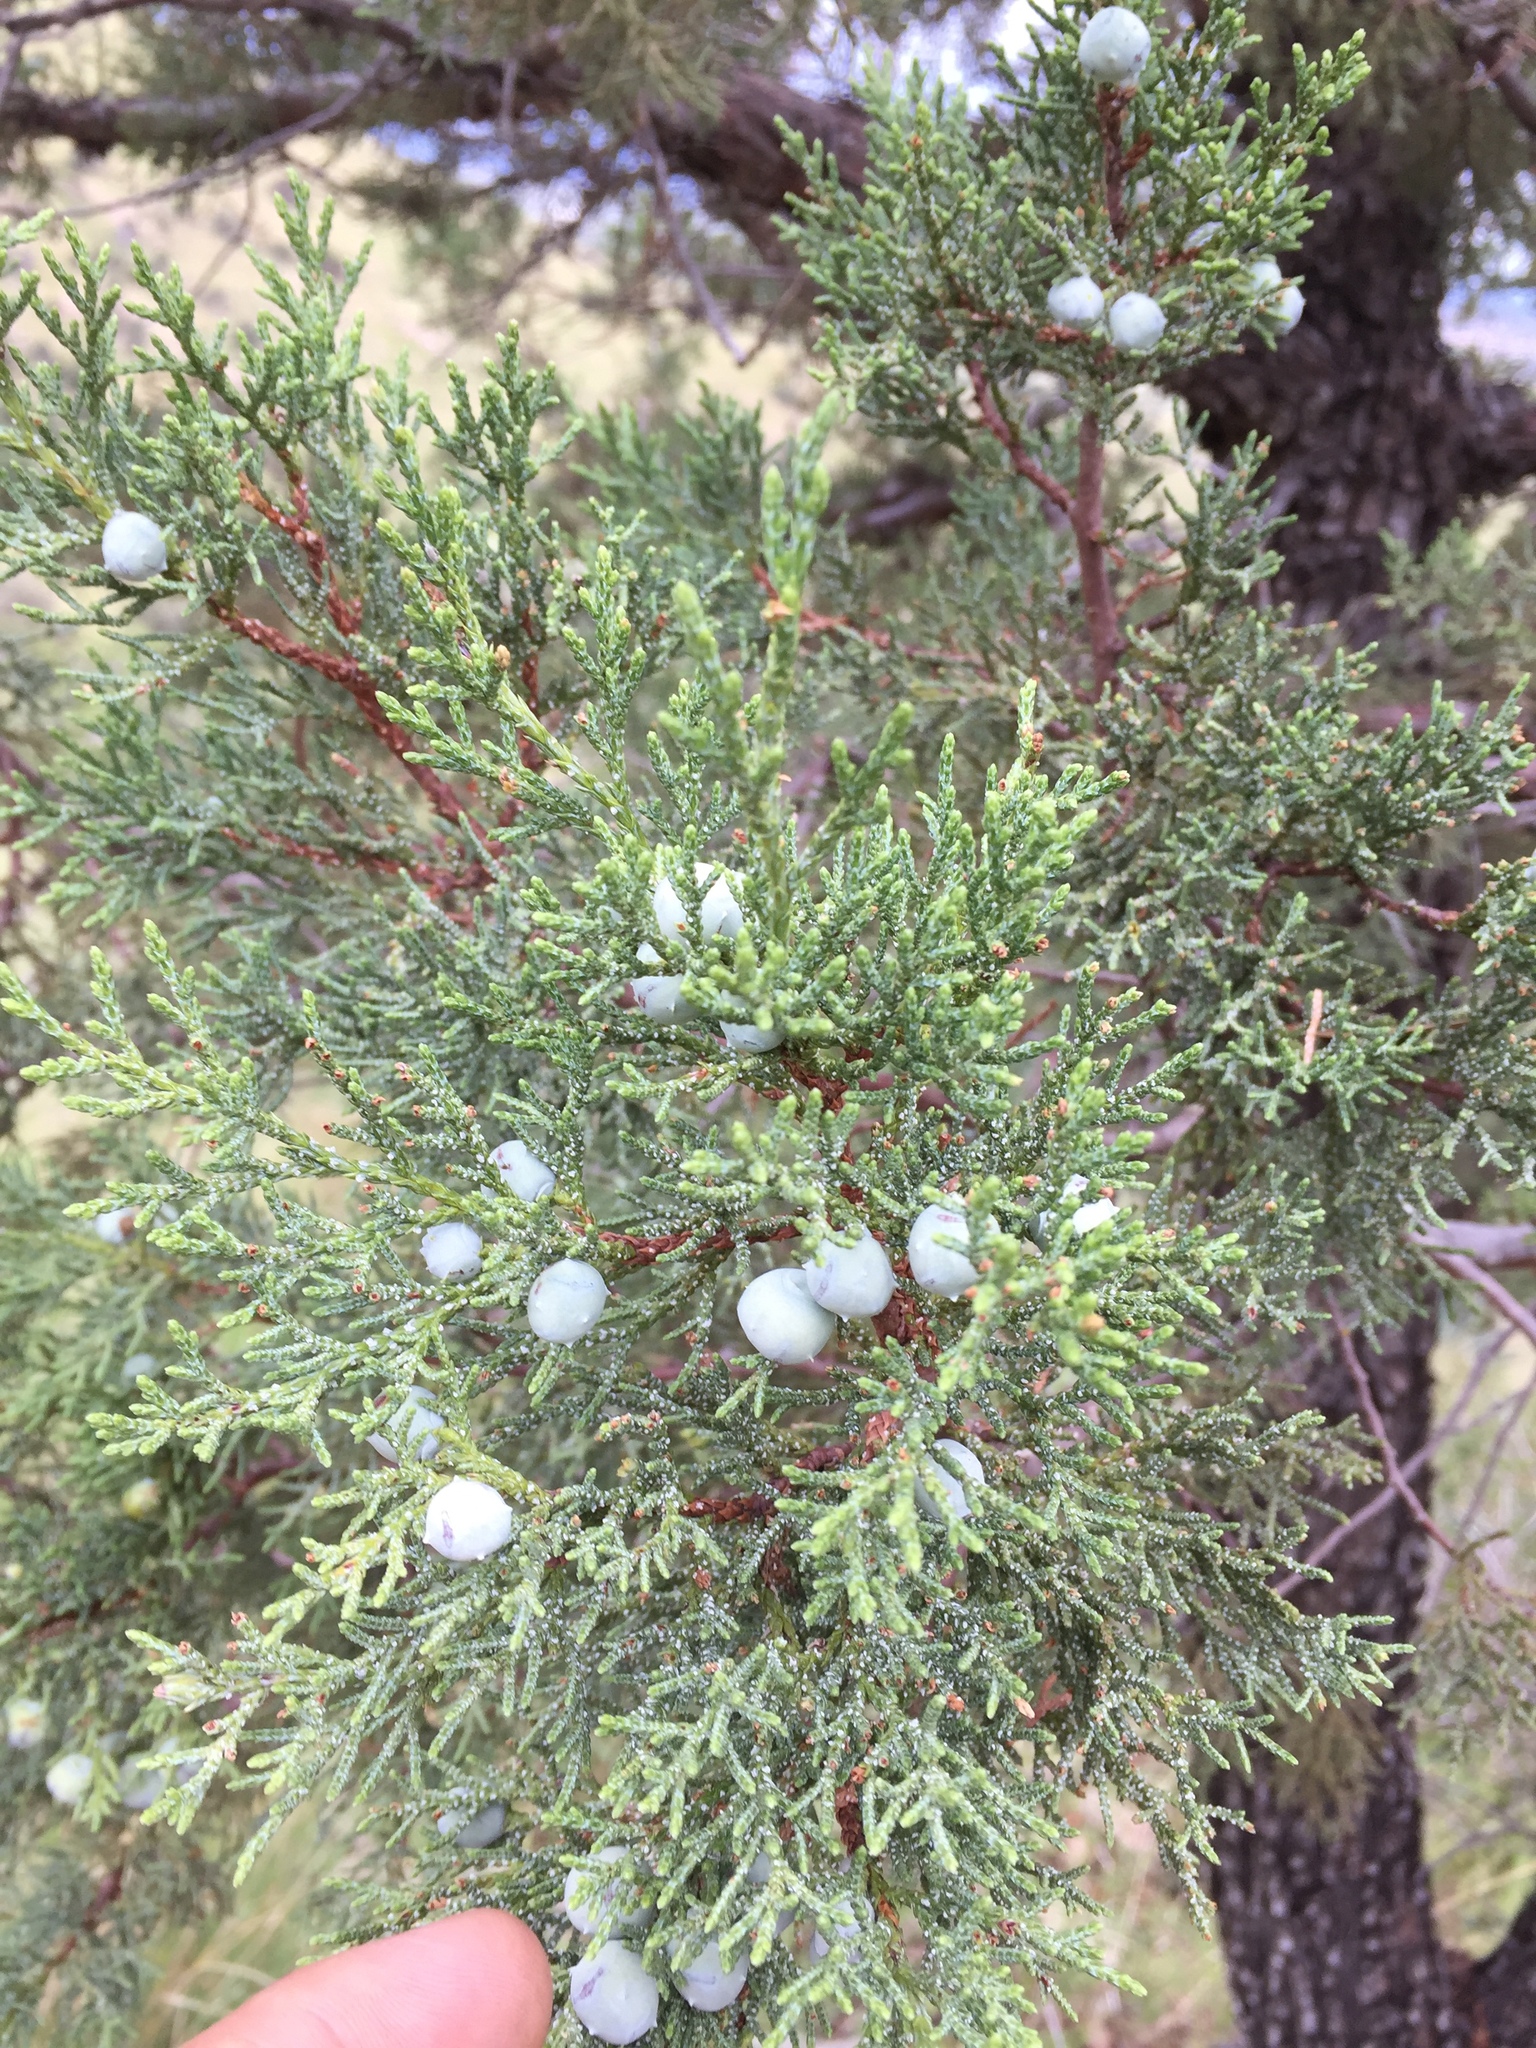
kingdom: Plantae
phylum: Tracheophyta
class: Pinopsida
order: Pinales
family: Cupressaceae
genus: Juniperus
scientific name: Juniperus deppeana
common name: Alligator juniper
